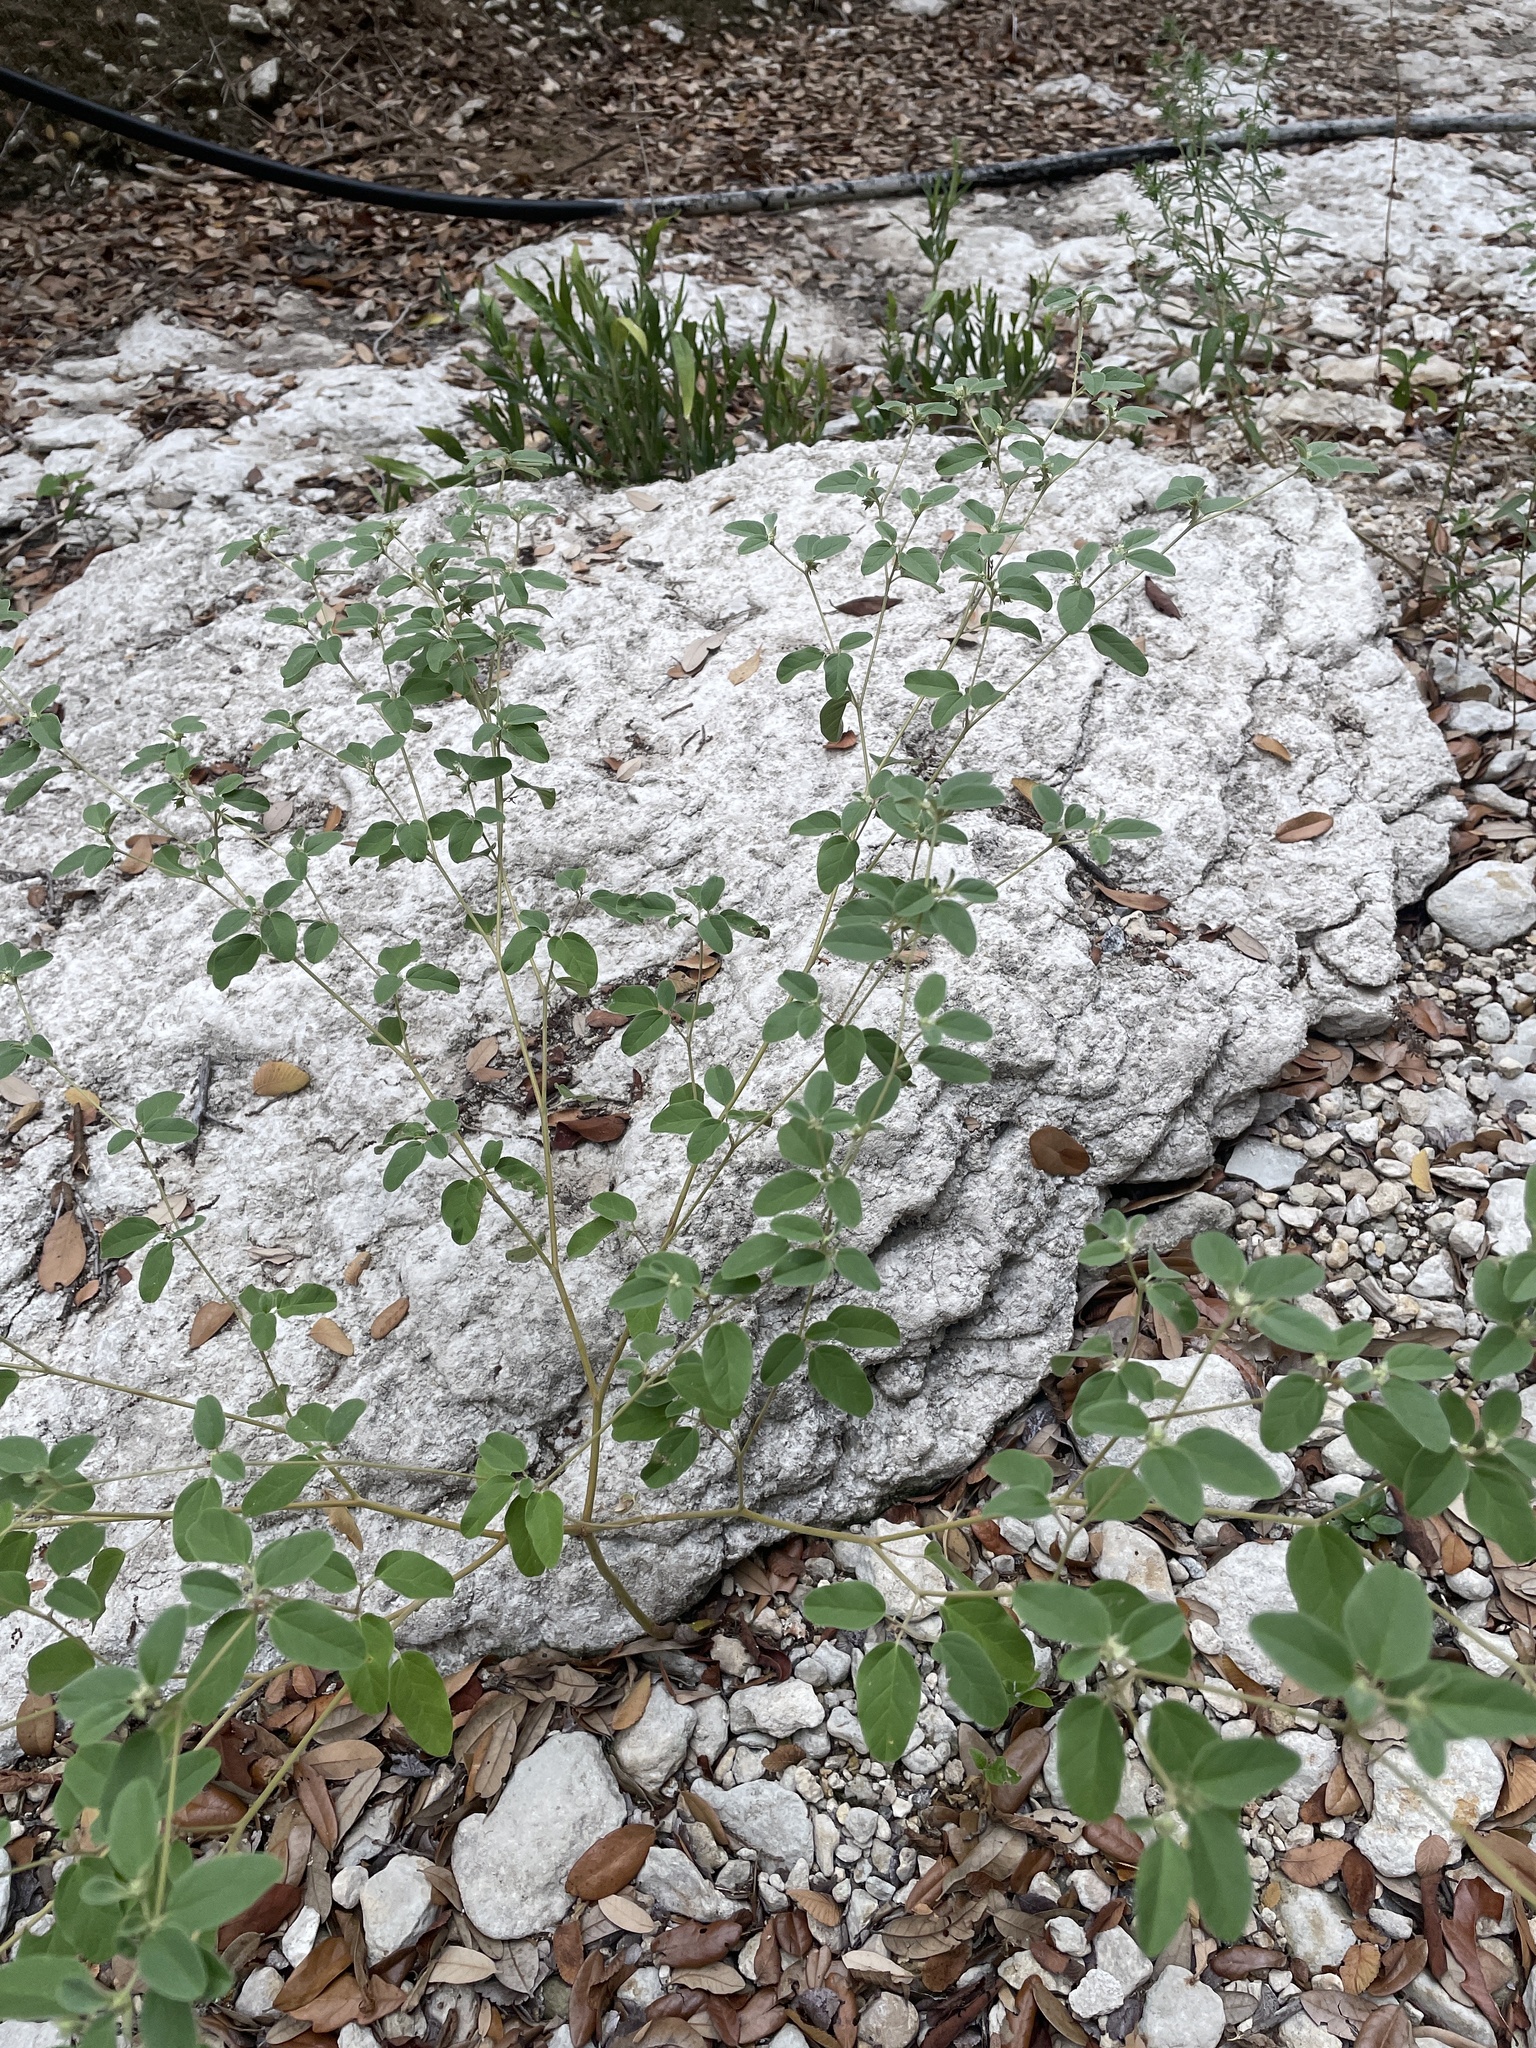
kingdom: Plantae
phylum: Tracheophyta
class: Magnoliopsida
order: Malpighiales
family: Euphorbiaceae
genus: Croton
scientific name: Croton monanthogynus
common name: One-seed croton
